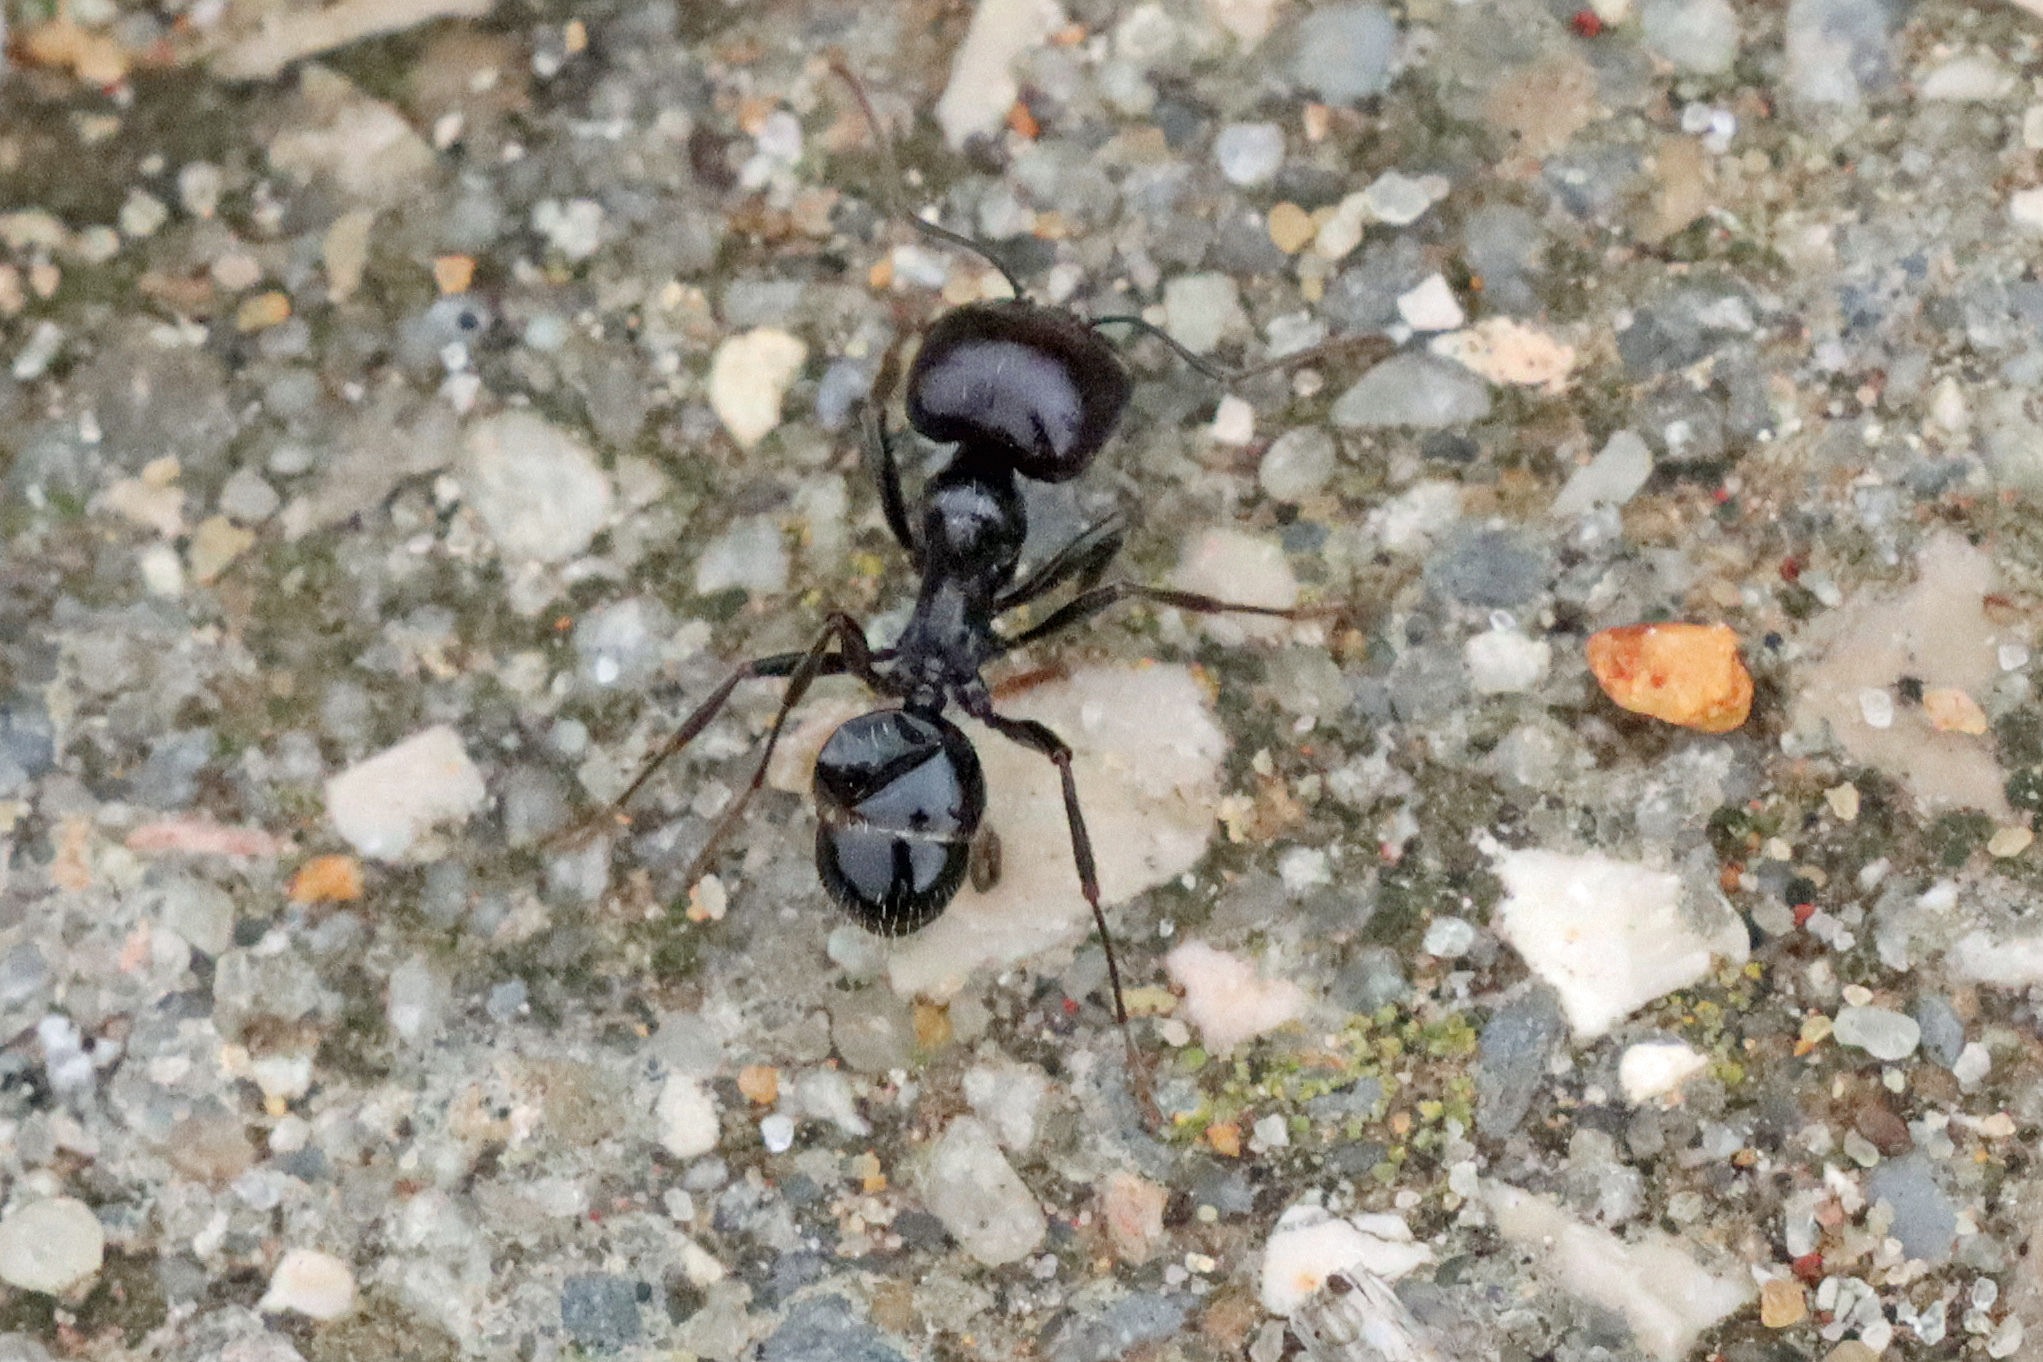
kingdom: Animalia
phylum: Arthropoda
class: Insecta
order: Hymenoptera
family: Formicidae
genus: Messor
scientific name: Messor barbarus
